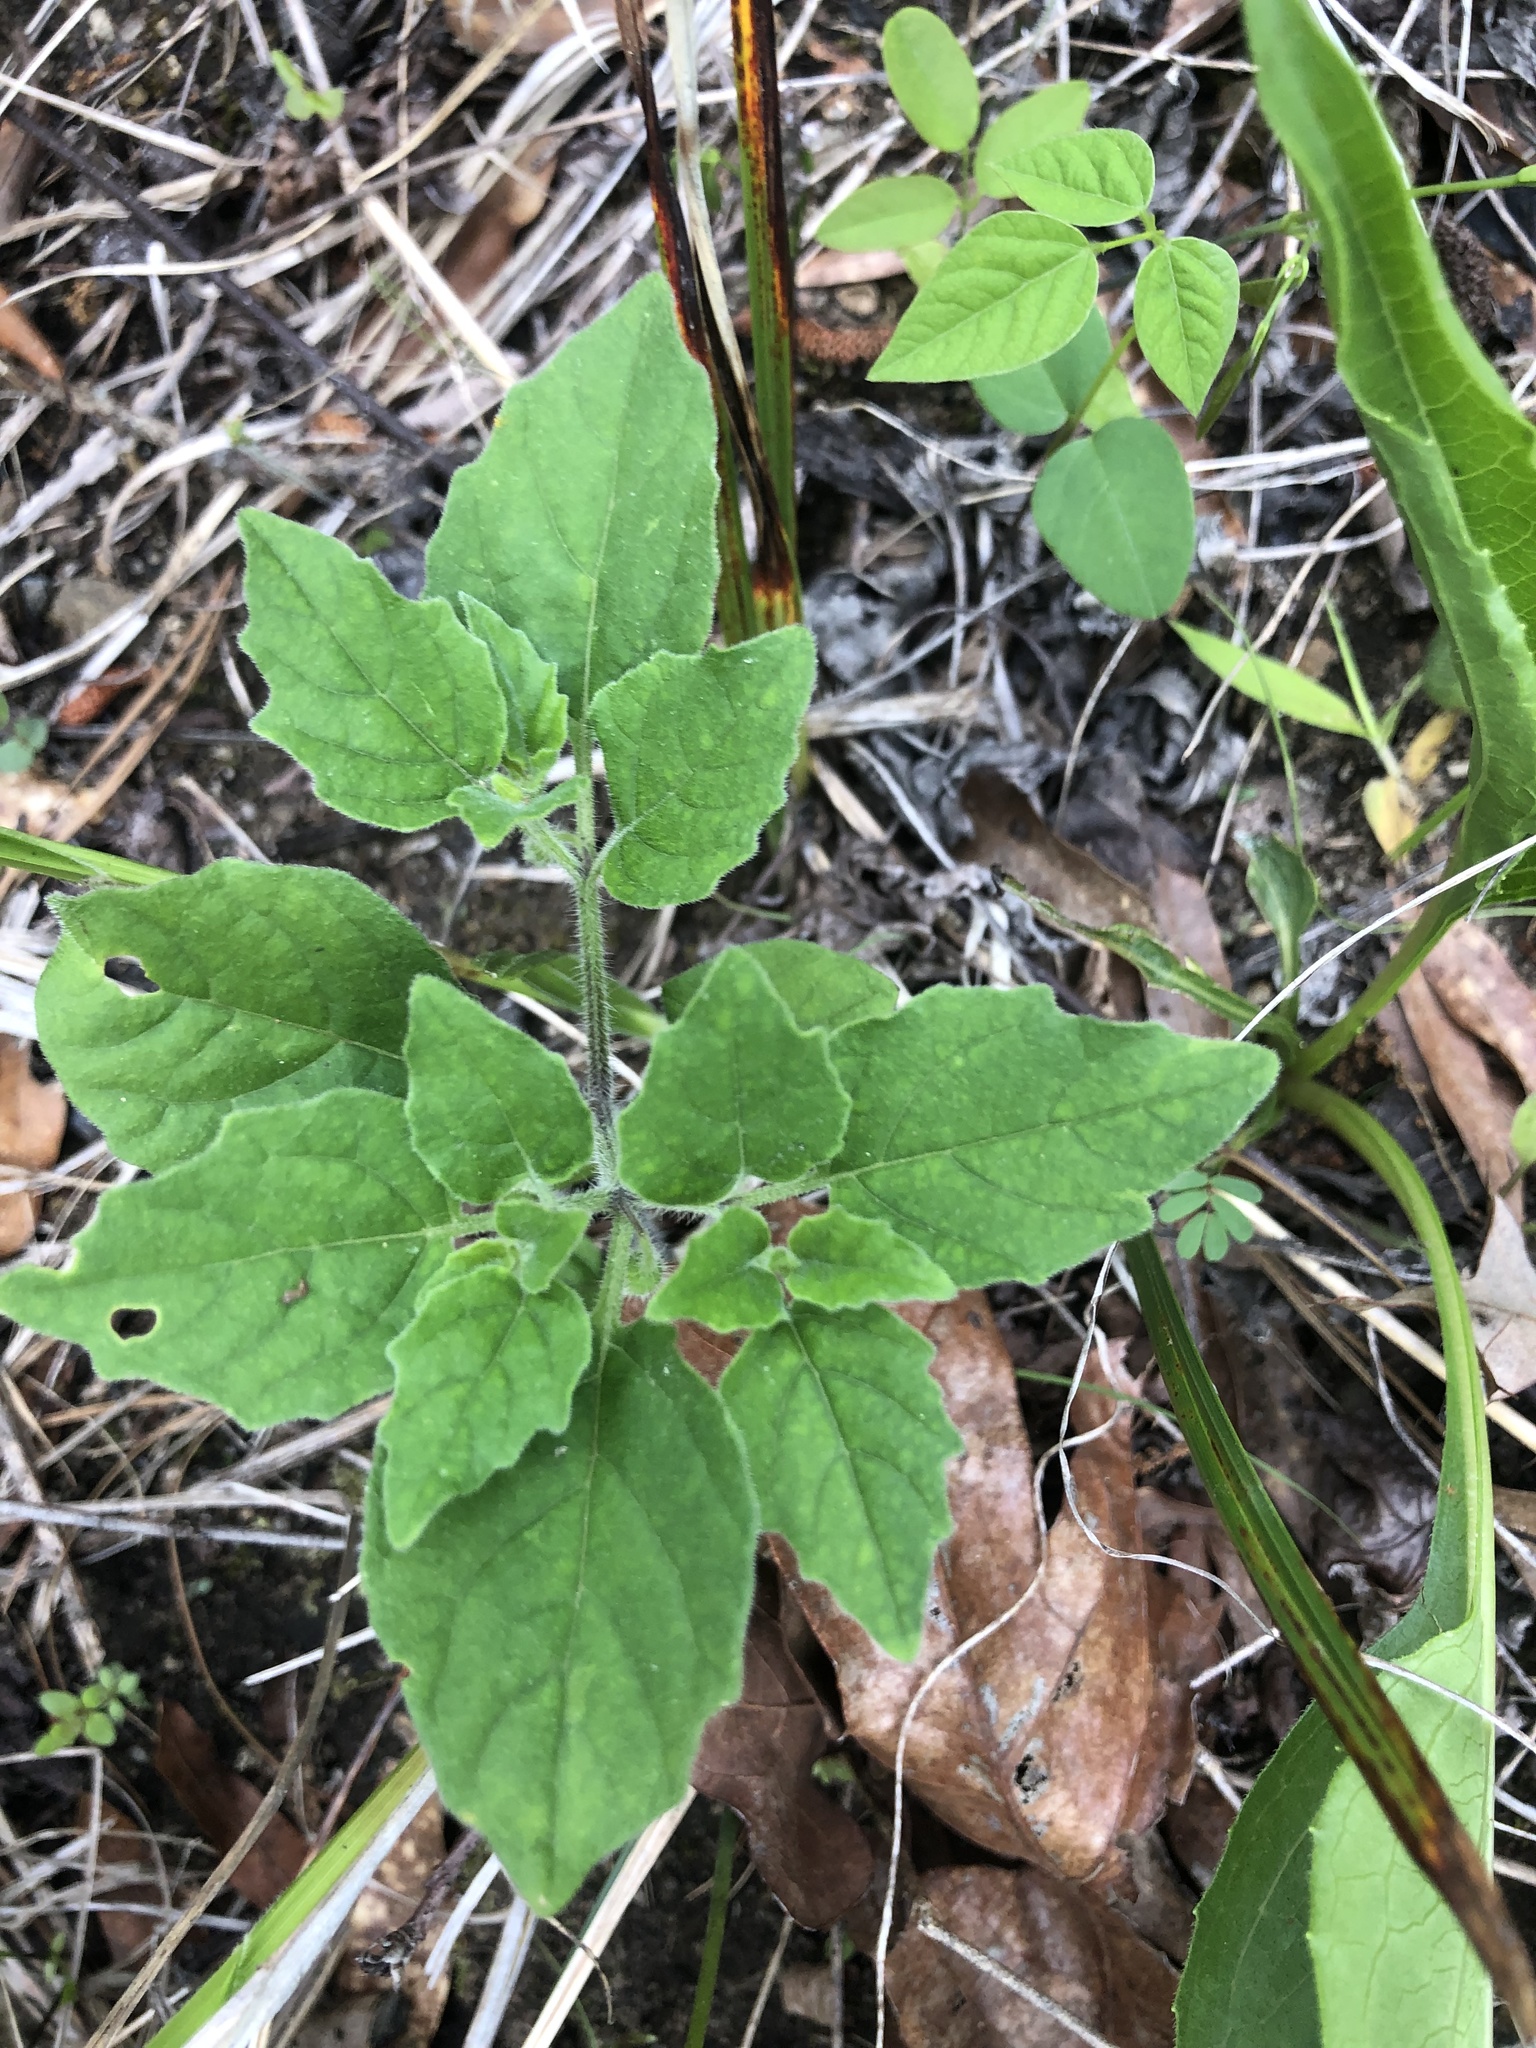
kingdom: Plantae
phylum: Tracheophyta
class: Magnoliopsida
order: Solanales
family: Solanaceae
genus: Physalis
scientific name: Physalis virginiana
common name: Virginia ground-cherry
